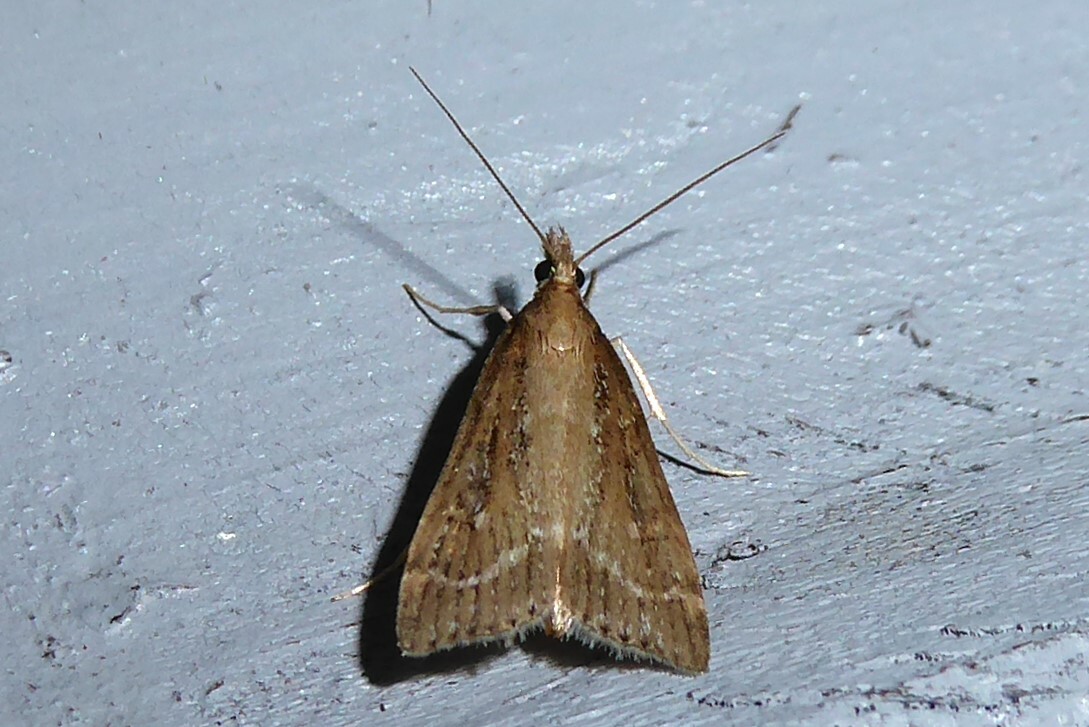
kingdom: Animalia
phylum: Arthropoda
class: Insecta
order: Lepidoptera
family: Crambidae
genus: Eudonia
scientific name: Eudonia octophora
